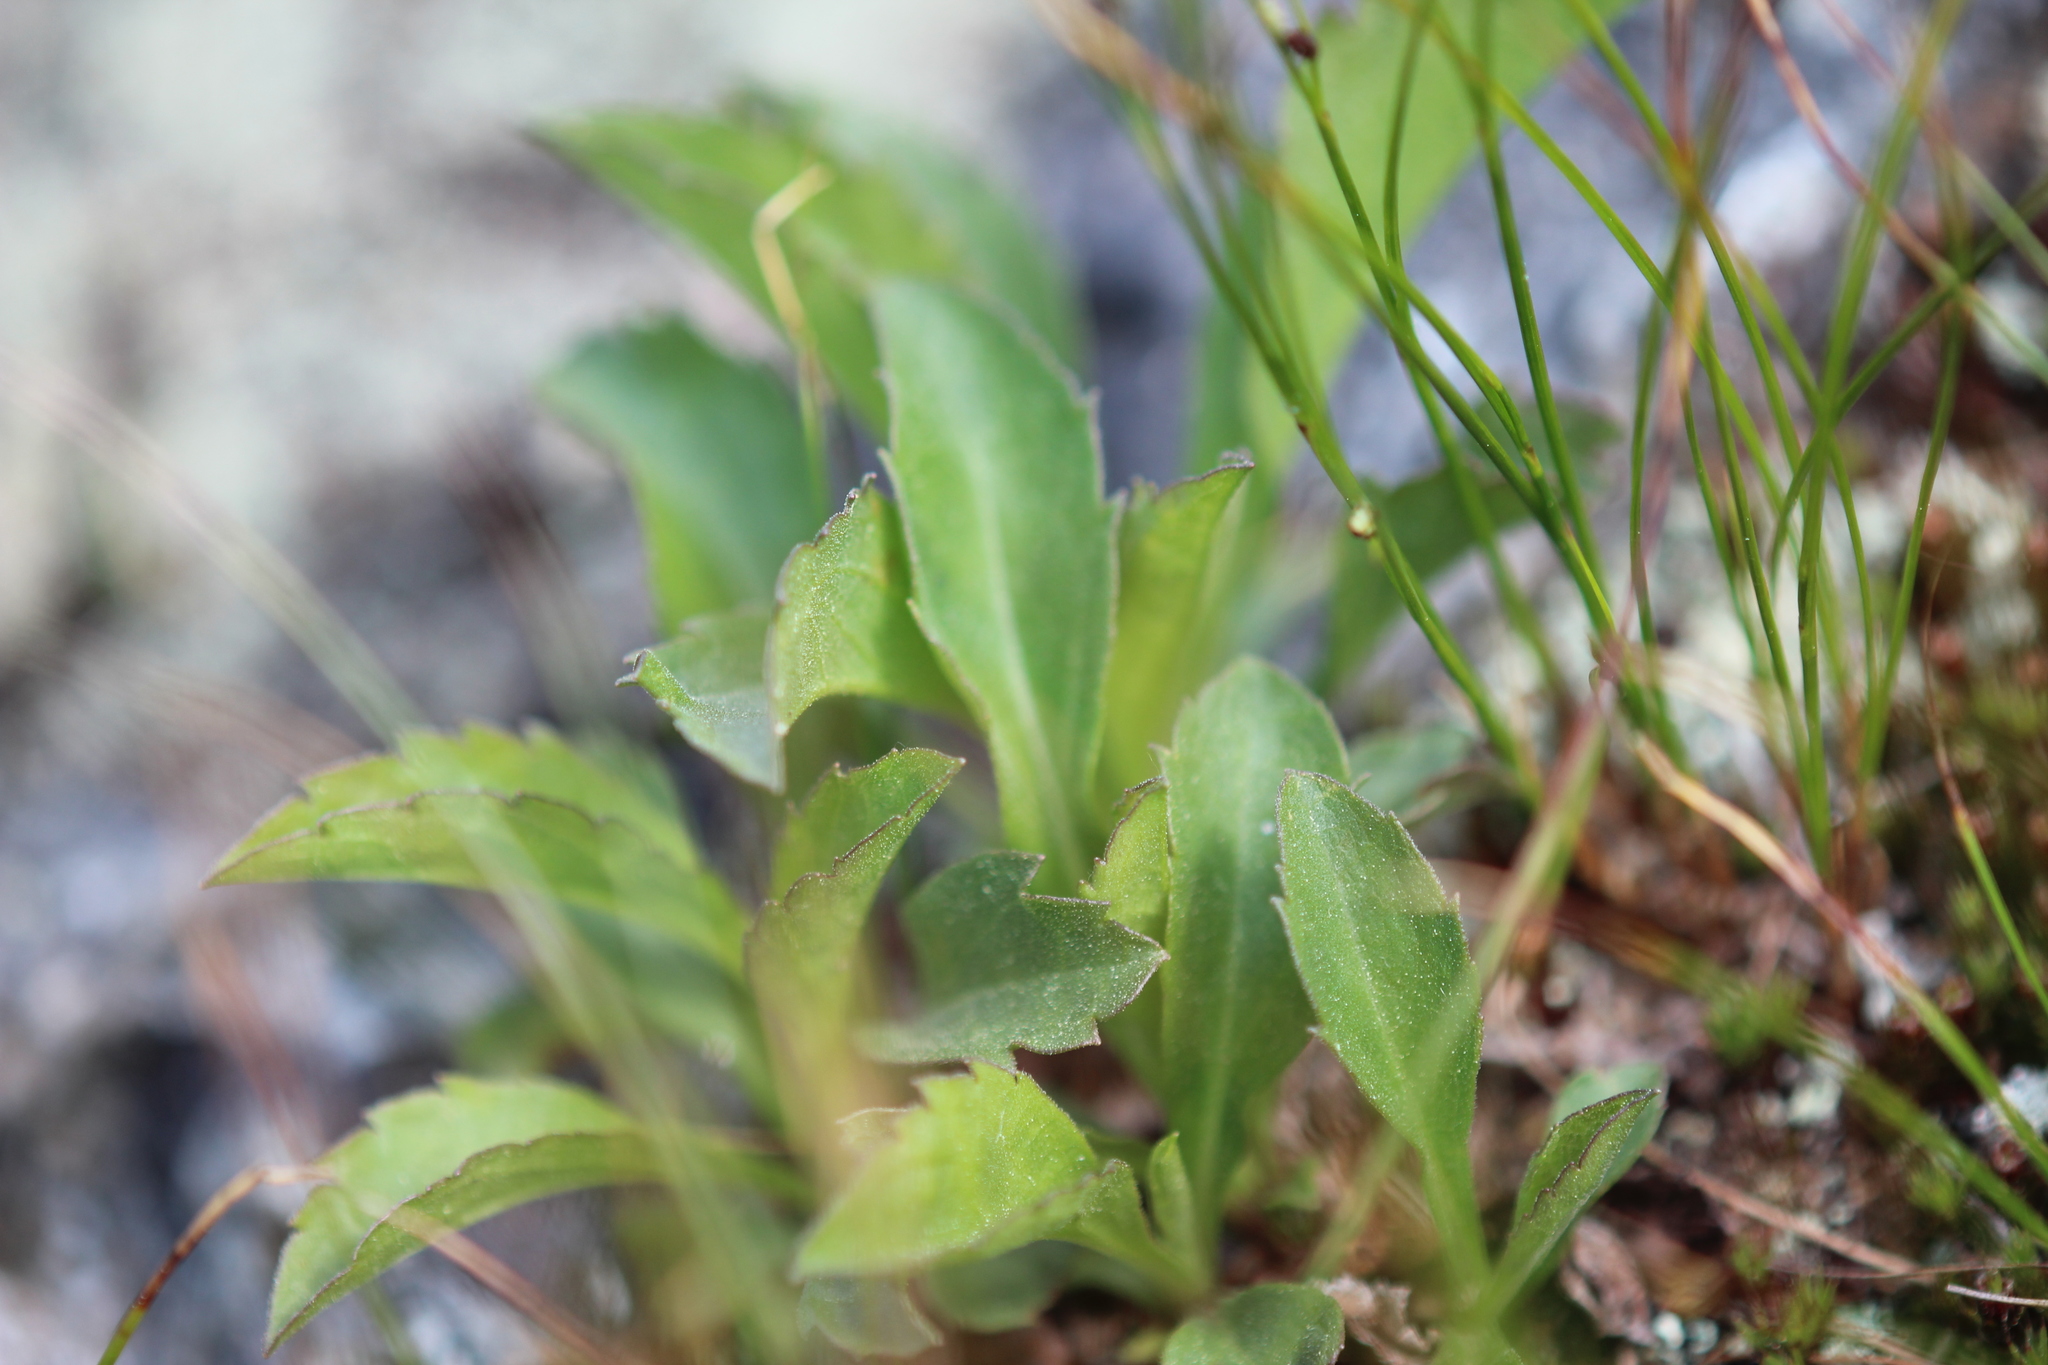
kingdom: Plantae
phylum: Tracheophyta
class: Magnoliopsida
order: Asterales
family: Asteraceae
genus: Solidago
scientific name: Solidago leiocarpa
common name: Cutler's alpine goldenrod
